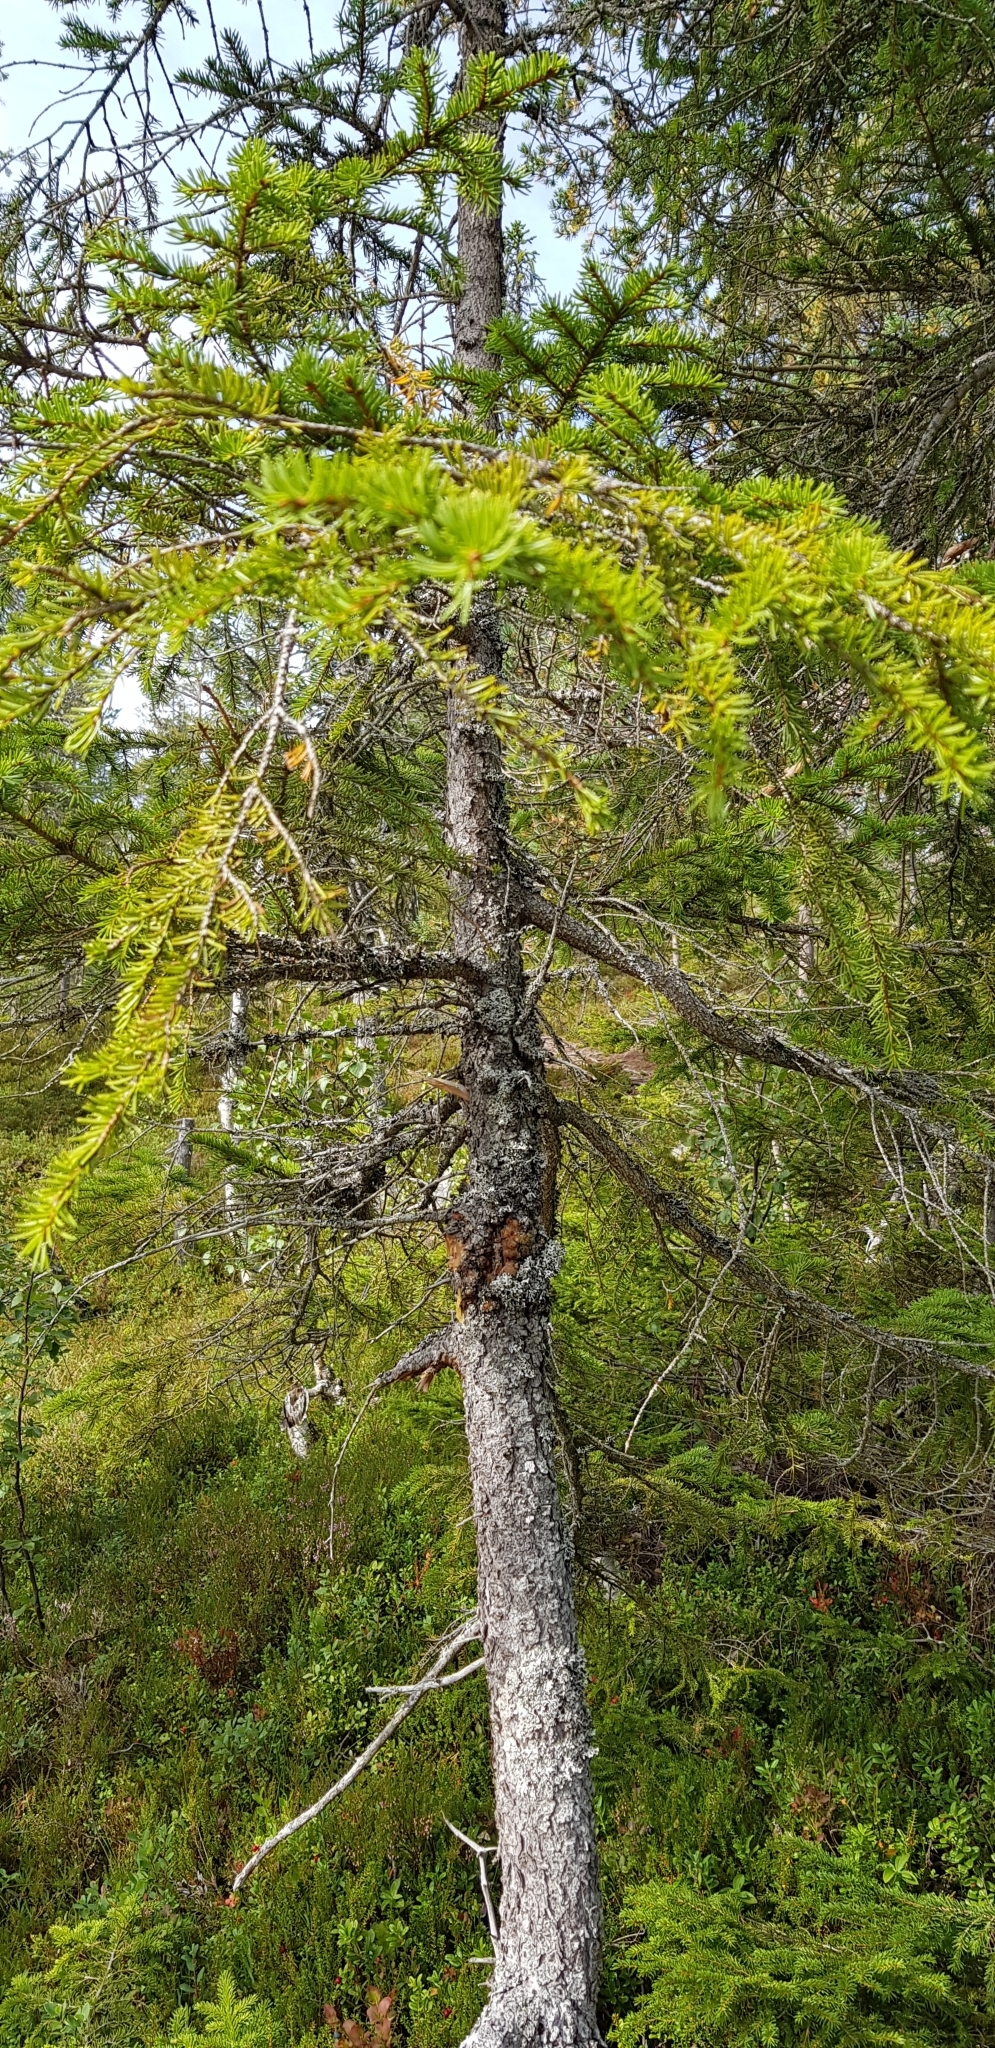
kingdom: Plantae
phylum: Tracheophyta
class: Pinopsida
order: Pinales
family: Pinaceae
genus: Picea
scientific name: Picea abies
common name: Norway spruce
